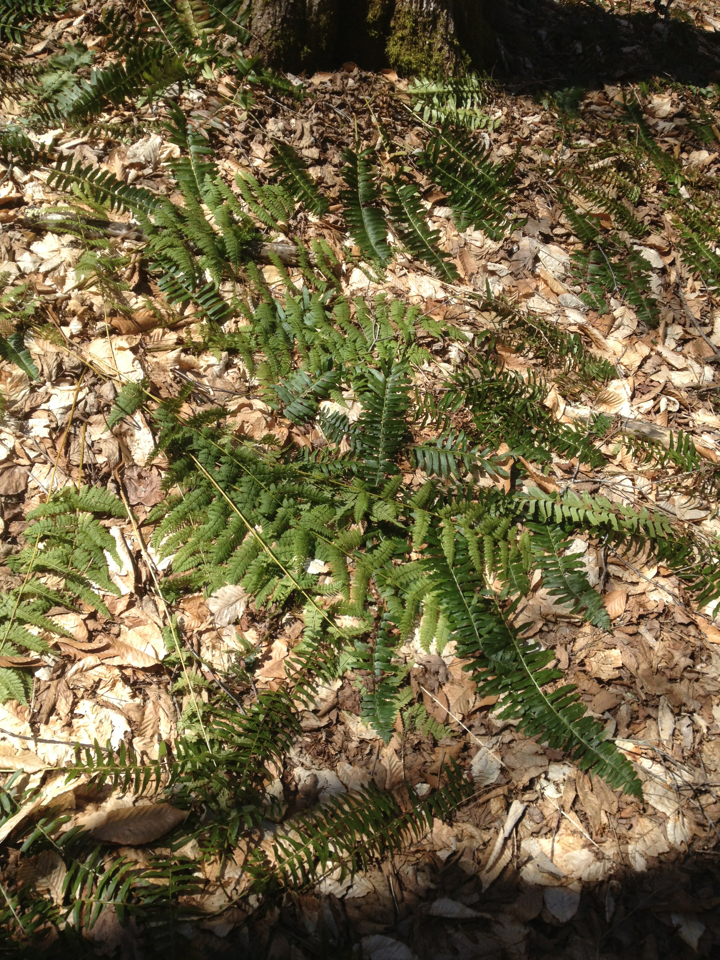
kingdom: Plantae
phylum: Tracheophyta
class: Polypodiopsida
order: Polypodiales
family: Dryopteridaceae
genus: Polystichum
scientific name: Polystichum acrostichoides
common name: Christmas fern
